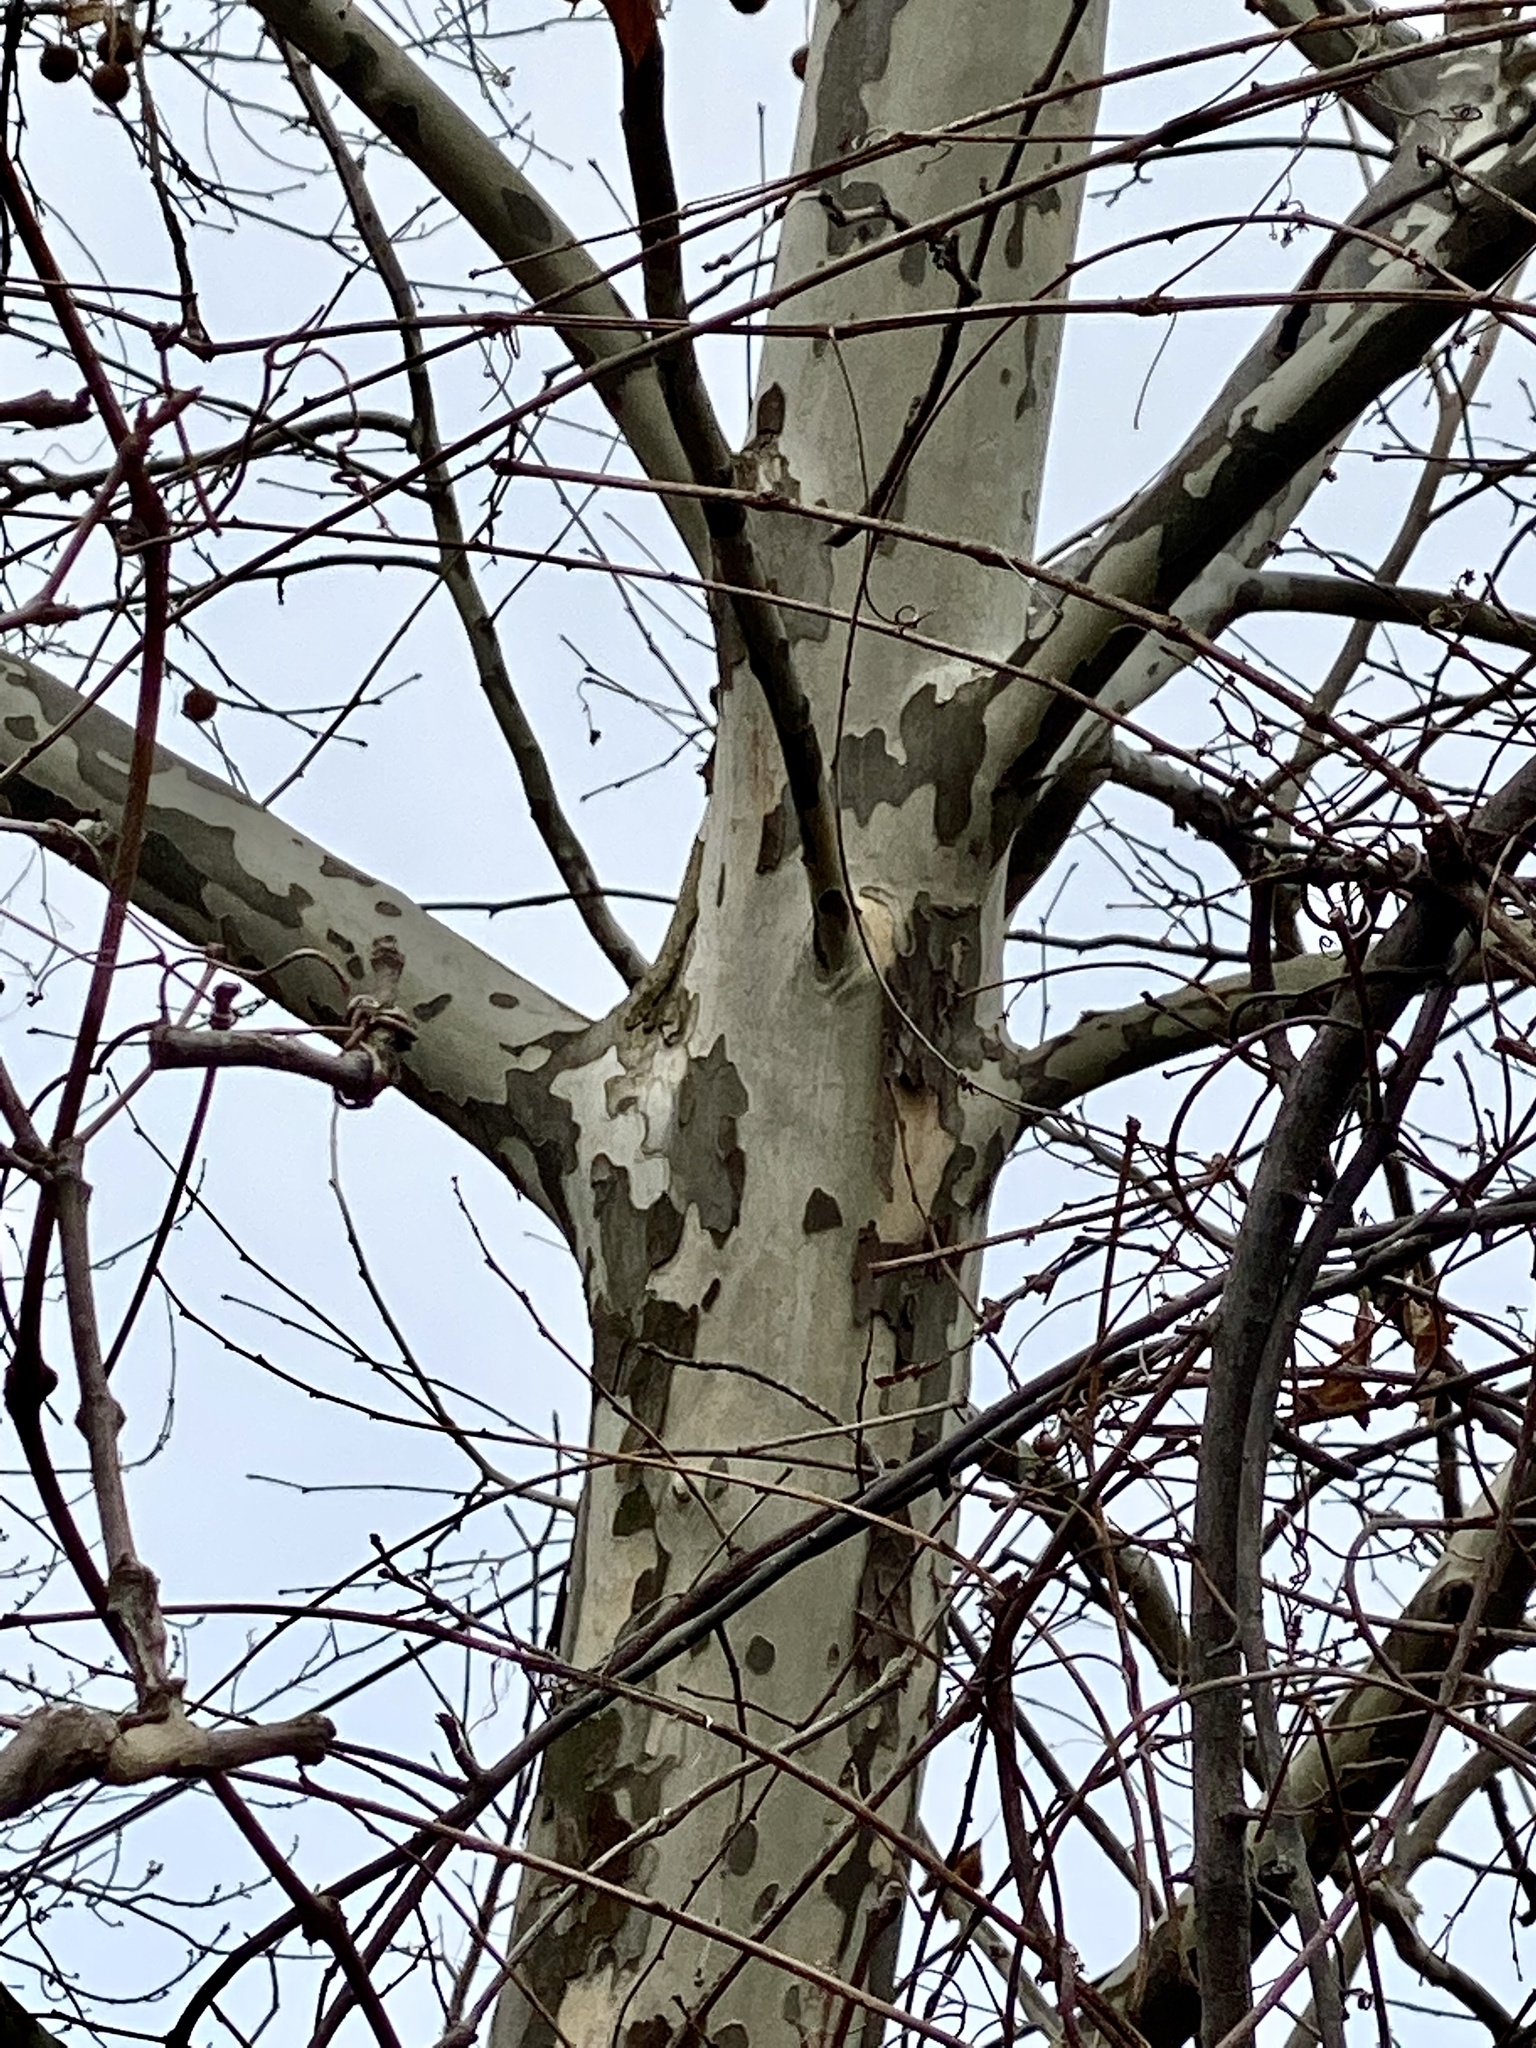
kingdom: Plantae
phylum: Tracheophyta
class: Magnoliopsida
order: Proteales
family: Platanaceae
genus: Platanus
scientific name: Platanus occidentalis
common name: American sycamore
